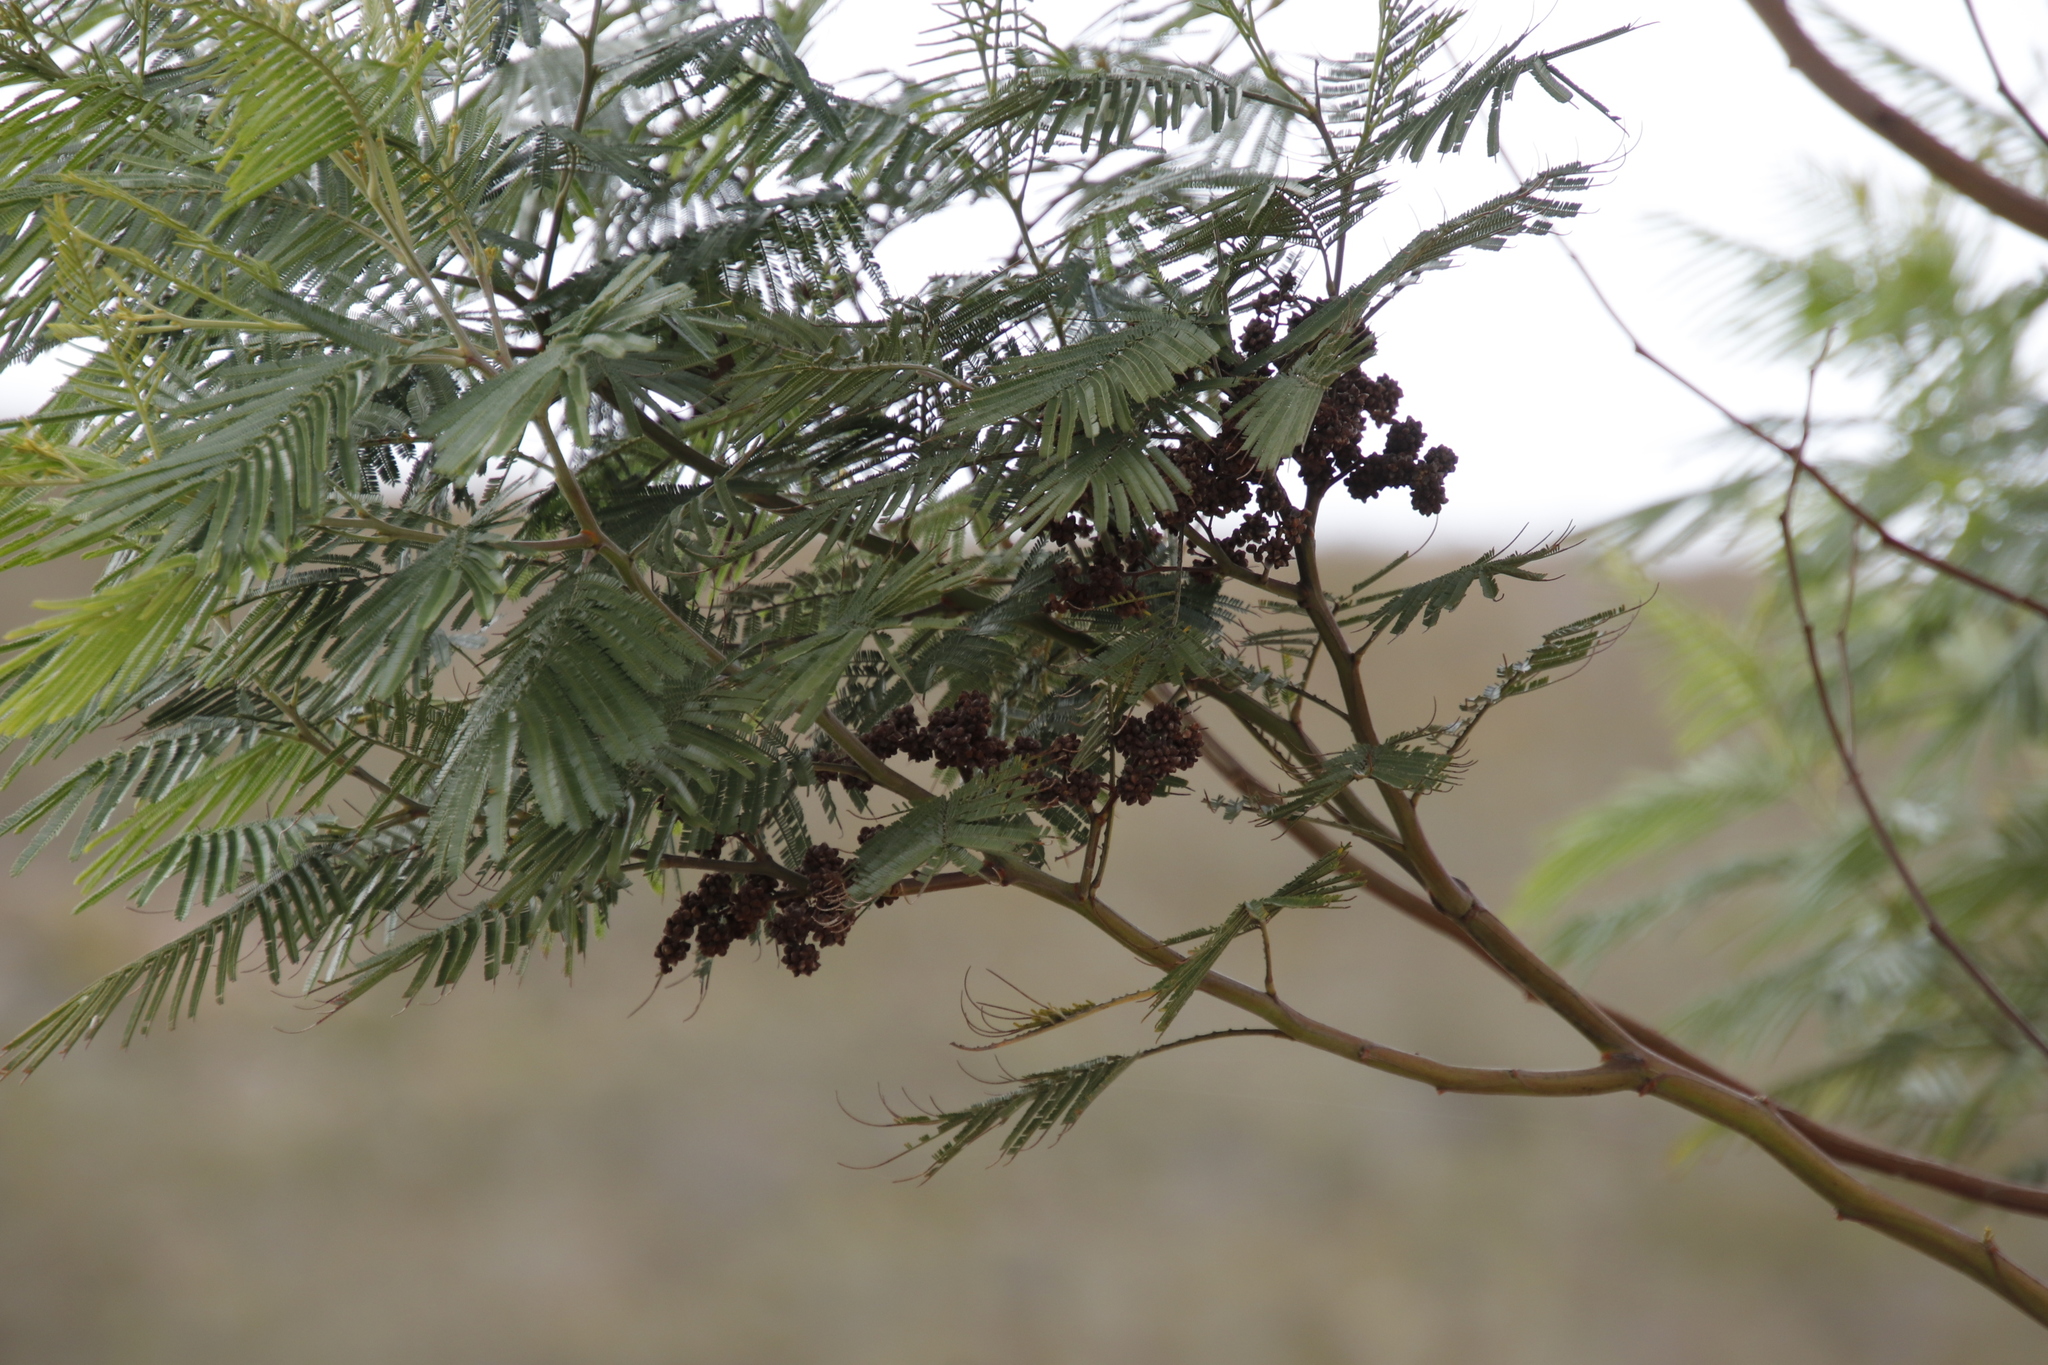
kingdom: Animalia
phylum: Arthropoda
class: Insecta
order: Diptera
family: Cecidomyiidae
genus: Dasineura
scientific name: Dasineura rubiformis
